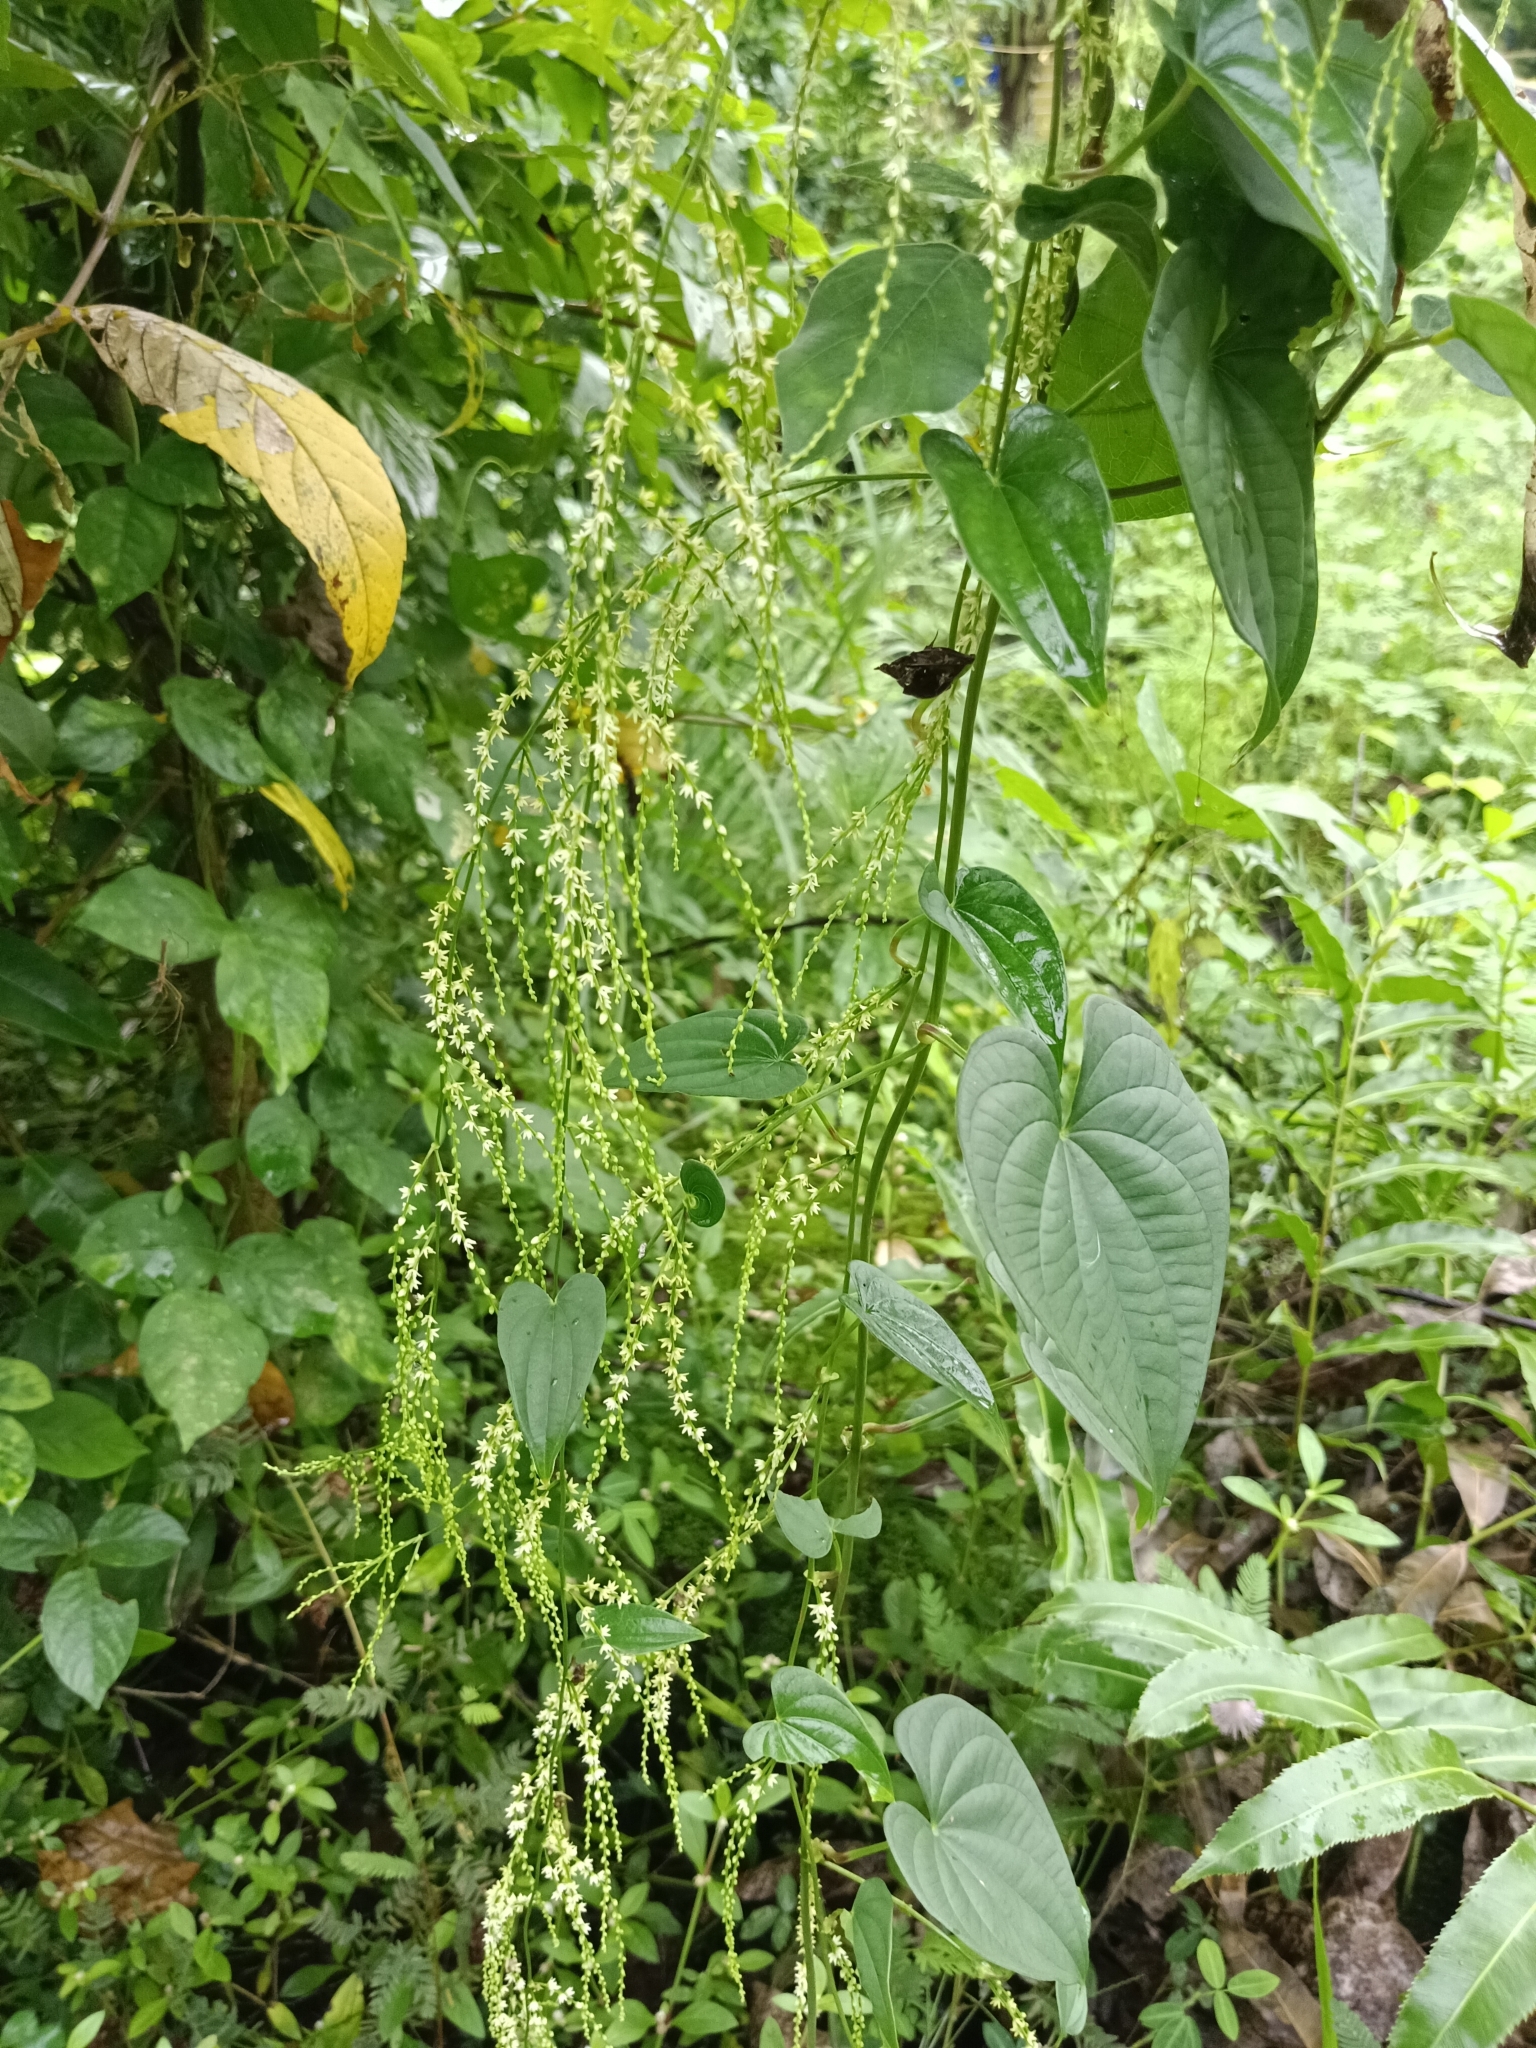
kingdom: Plantae
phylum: Tracheophyta
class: Liliopsida
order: Dioscoreales
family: Dioscoreaceae
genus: Dioscorea
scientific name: Dioscorea bulbifera
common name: Air yam
